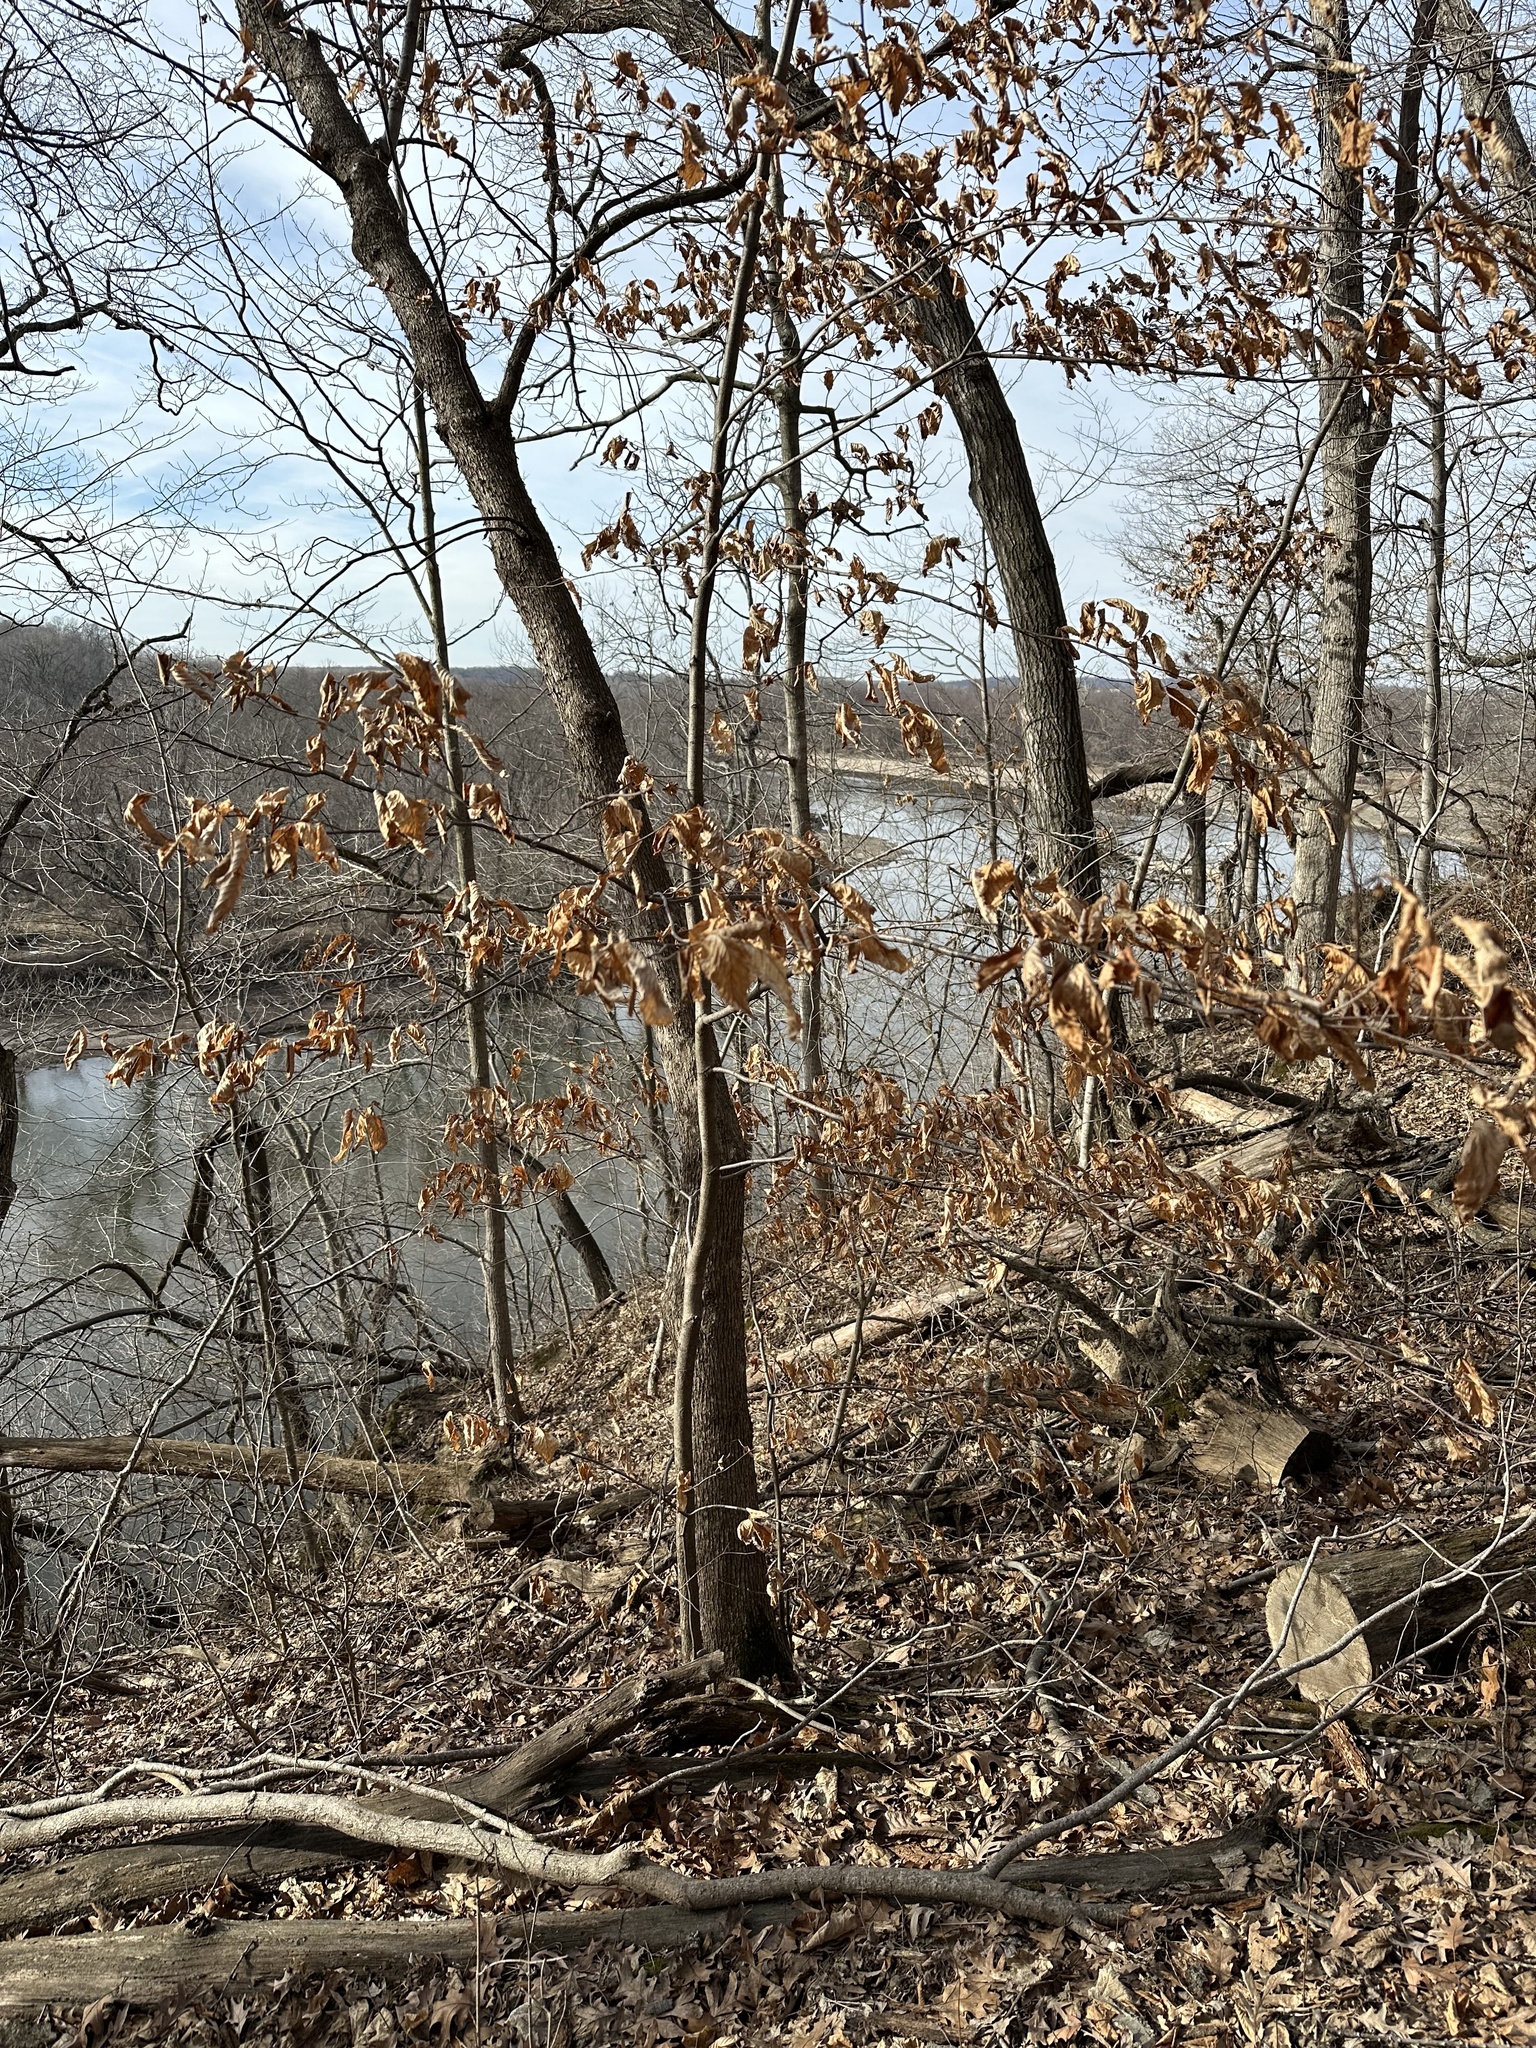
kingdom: Plantae
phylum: Tracheophyta
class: Magnoliopsida
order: Fagales
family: Betulaceae
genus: Ostrya
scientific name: Ostrya virginiana
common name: Ironwood
